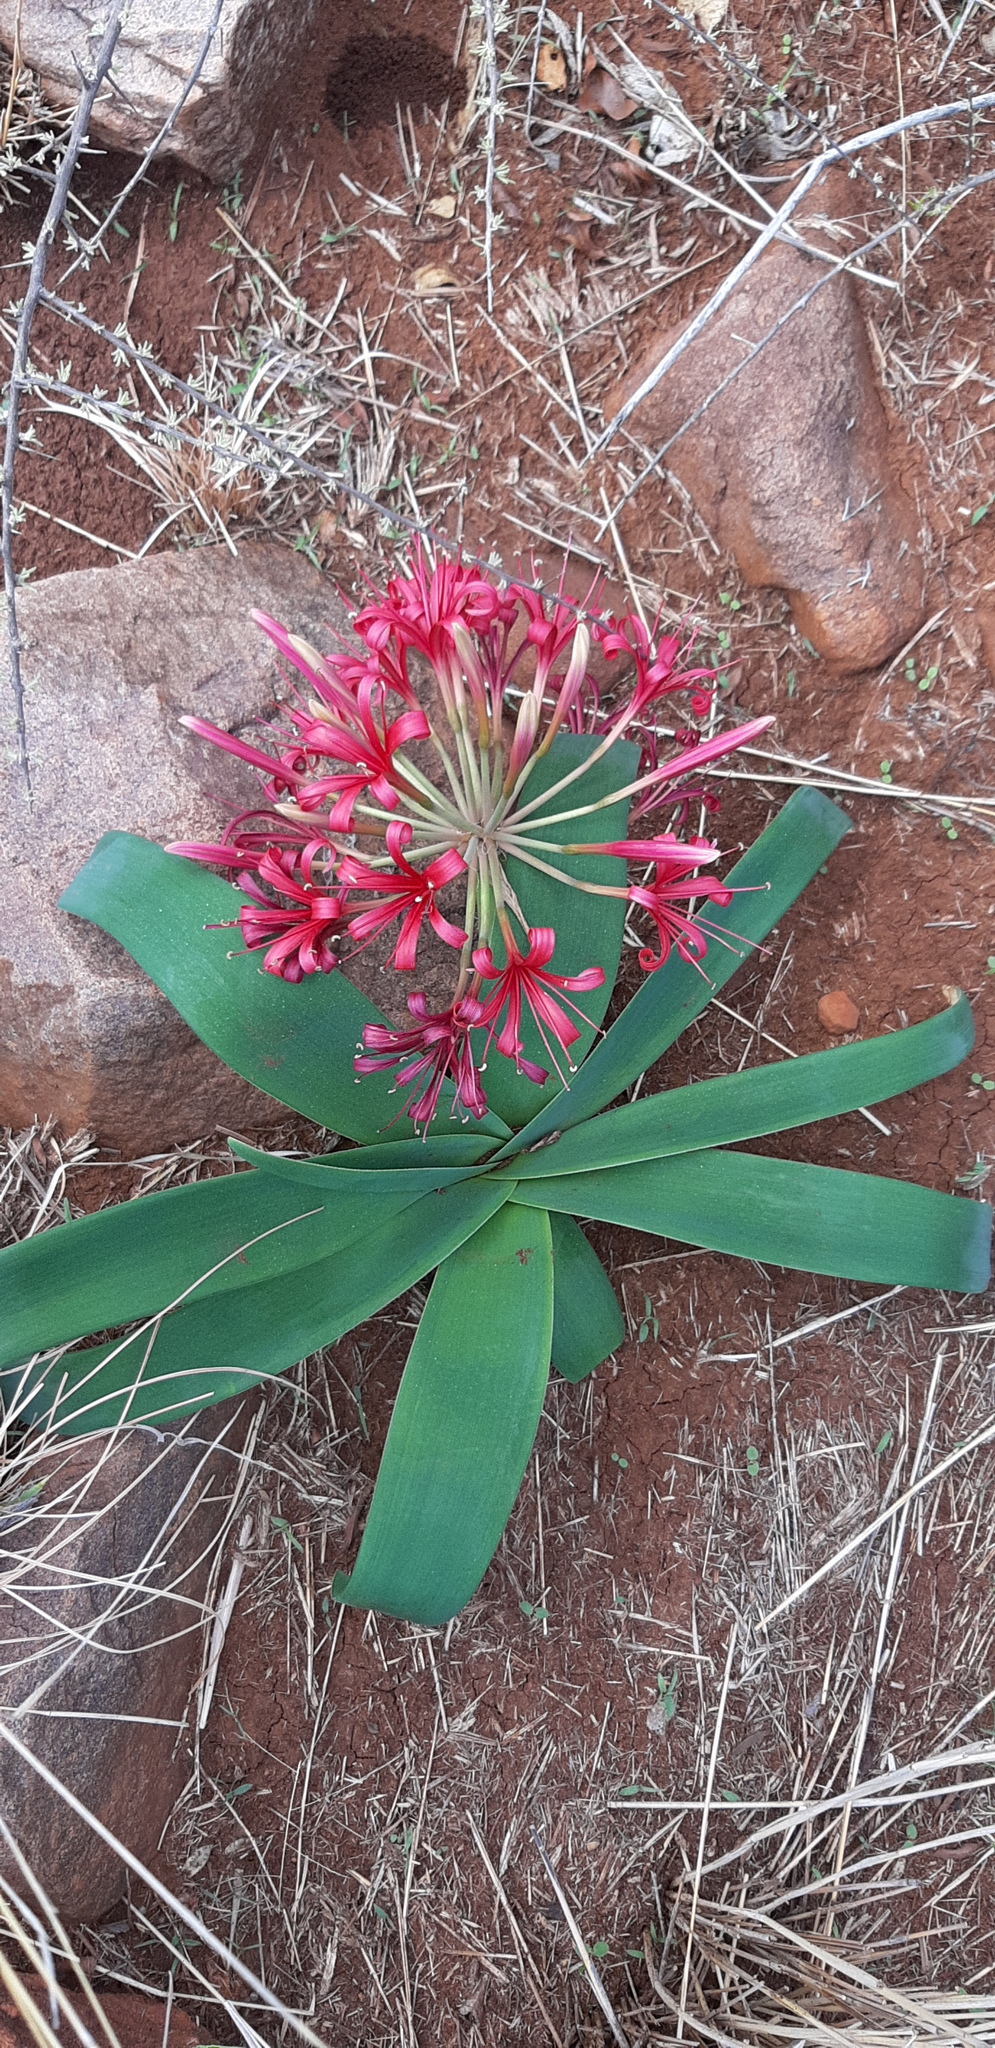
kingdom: Plantae
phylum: Tracheophyta
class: Liliopsida
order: Asparagales
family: Amaryllidaceae
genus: Ammocharis
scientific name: Ammocharis coranica
